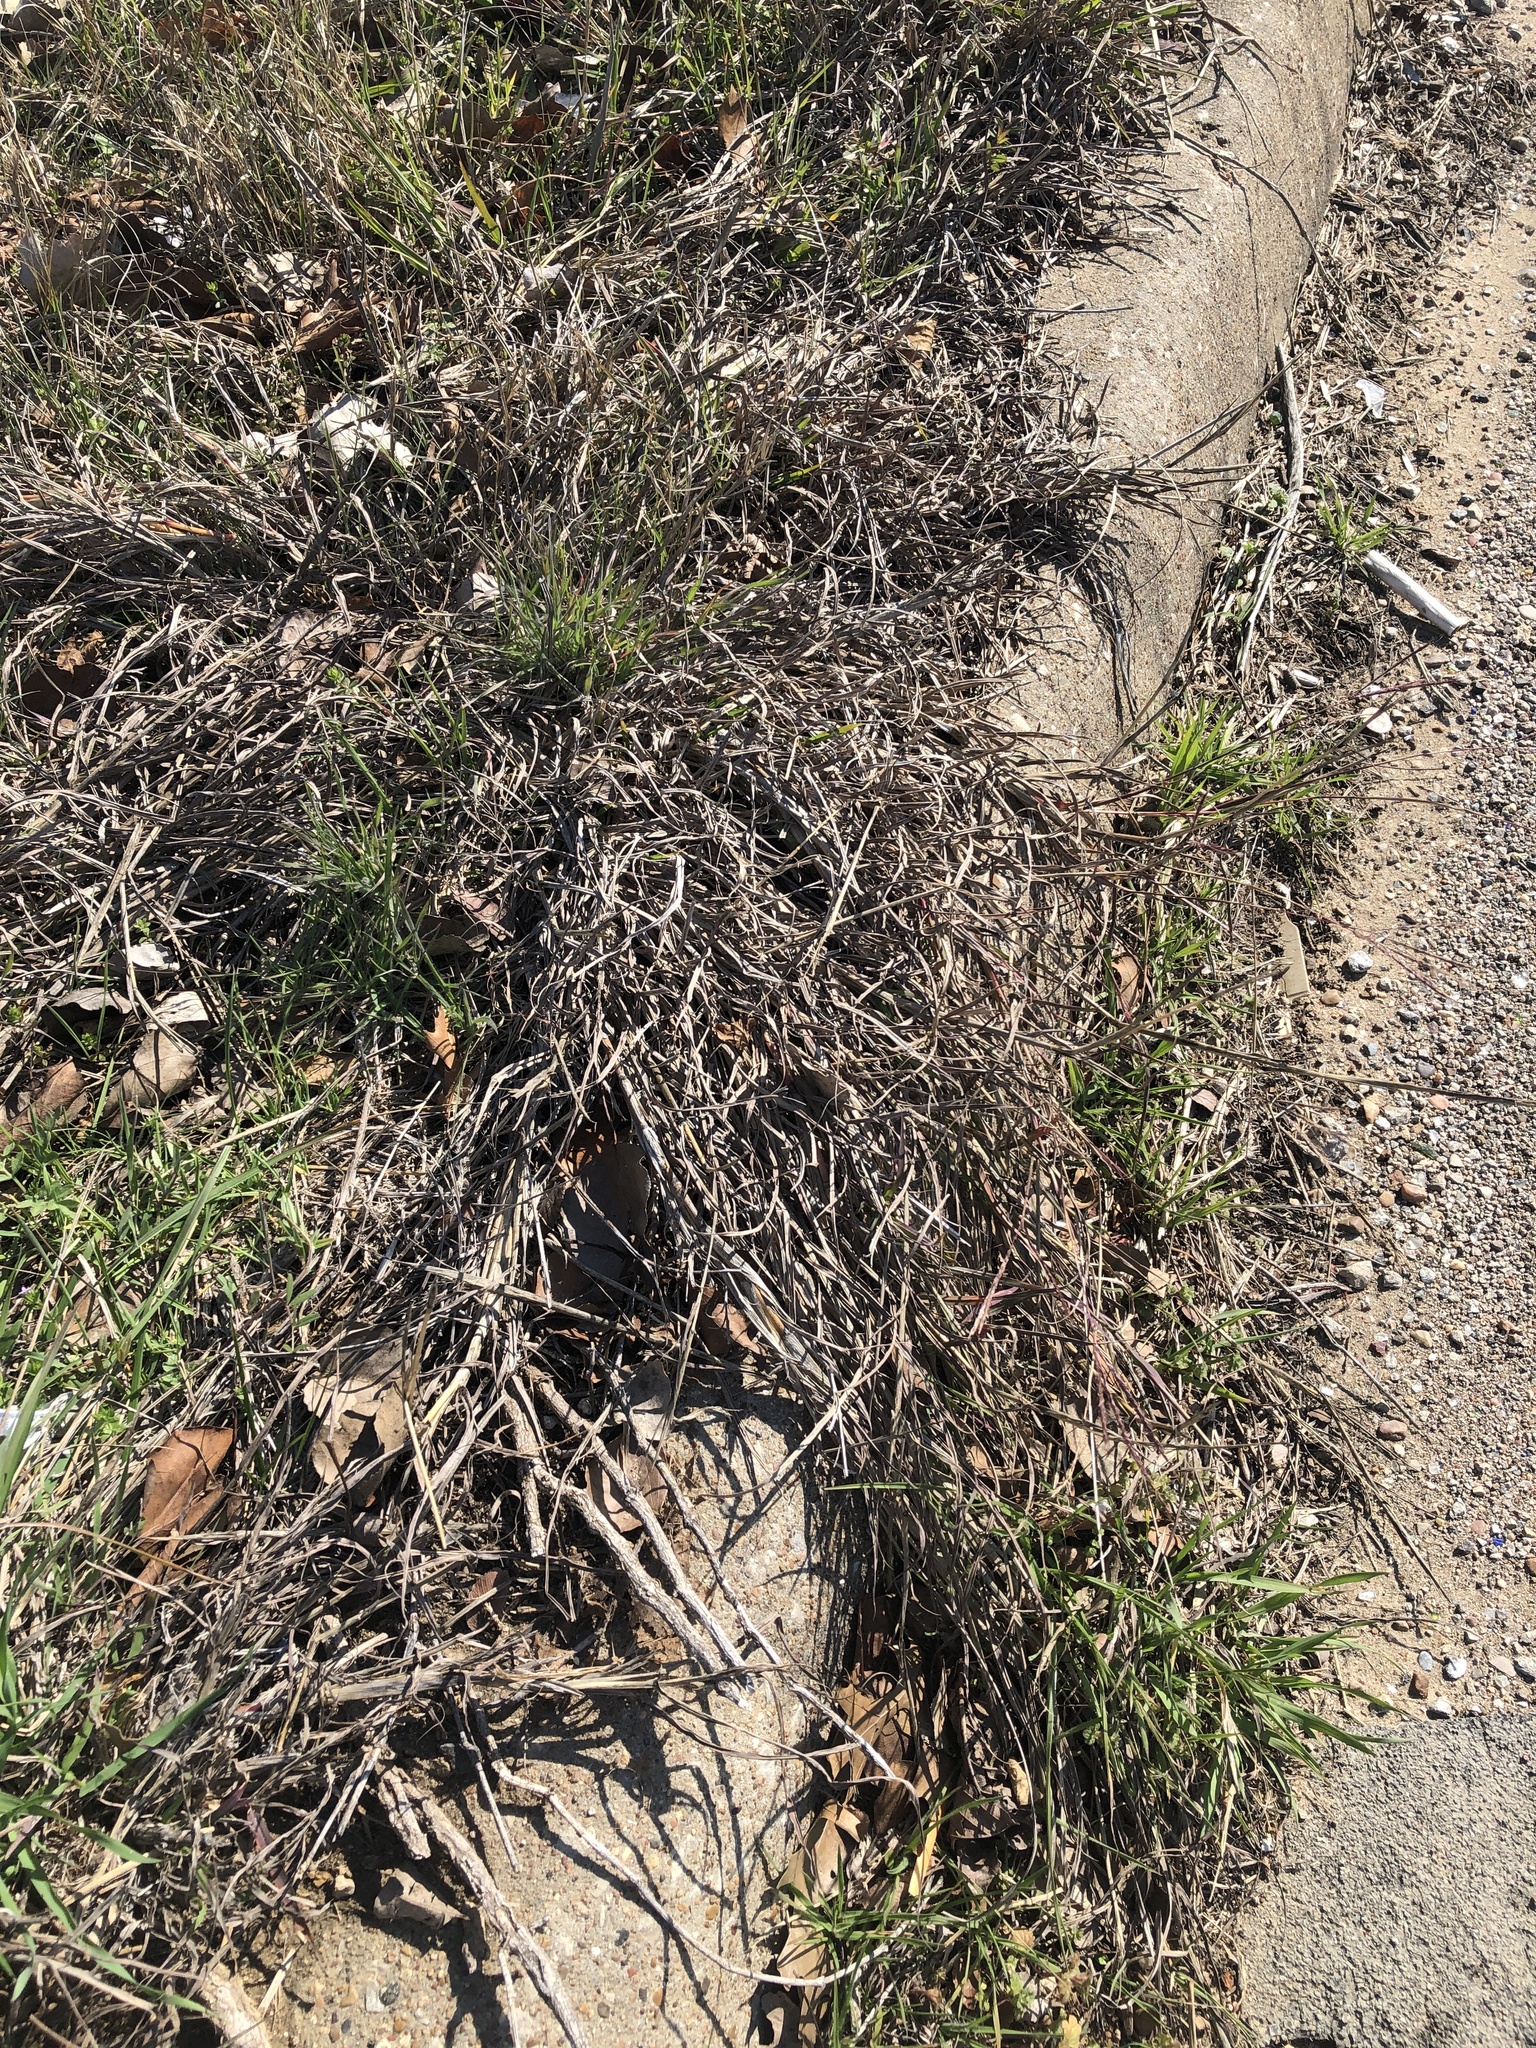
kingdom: Plantae
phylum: Tracheophyta
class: Liliopsida
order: Poales
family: Poaceae
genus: Bothriochloa
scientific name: Bothriochloa ischaemum
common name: Yellow bluestem
